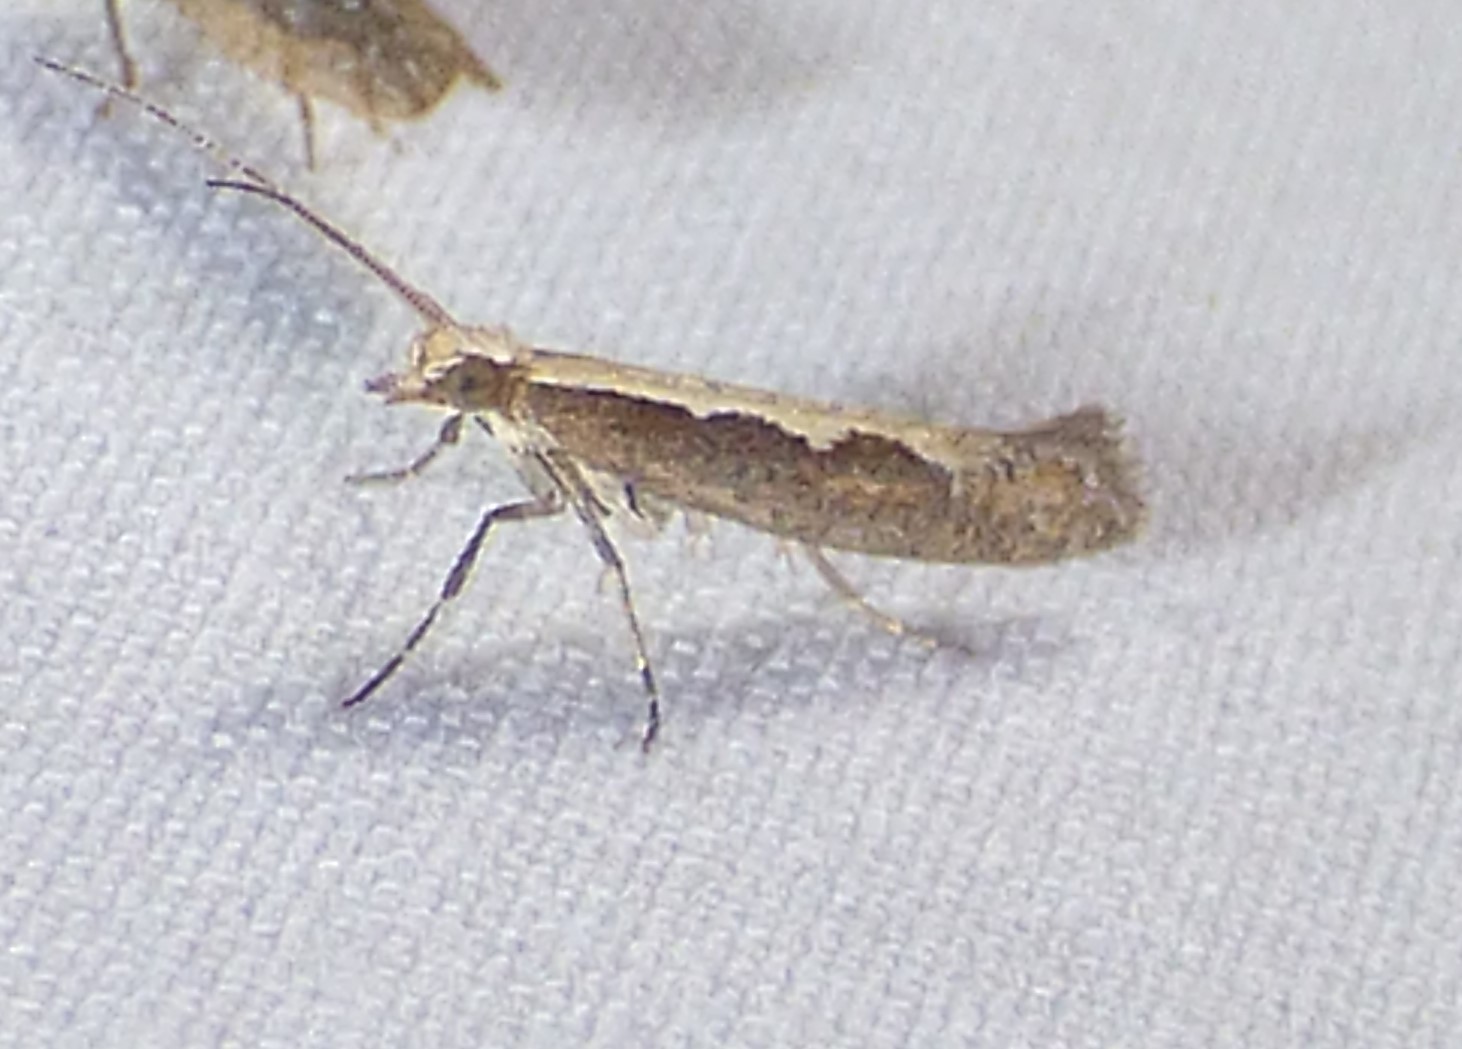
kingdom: Animalia
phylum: Arthropoda
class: Insecta
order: Lepidoptera
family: Plutellidae
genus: Plutella
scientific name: Plutella xylostella
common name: Diamond-back moth
